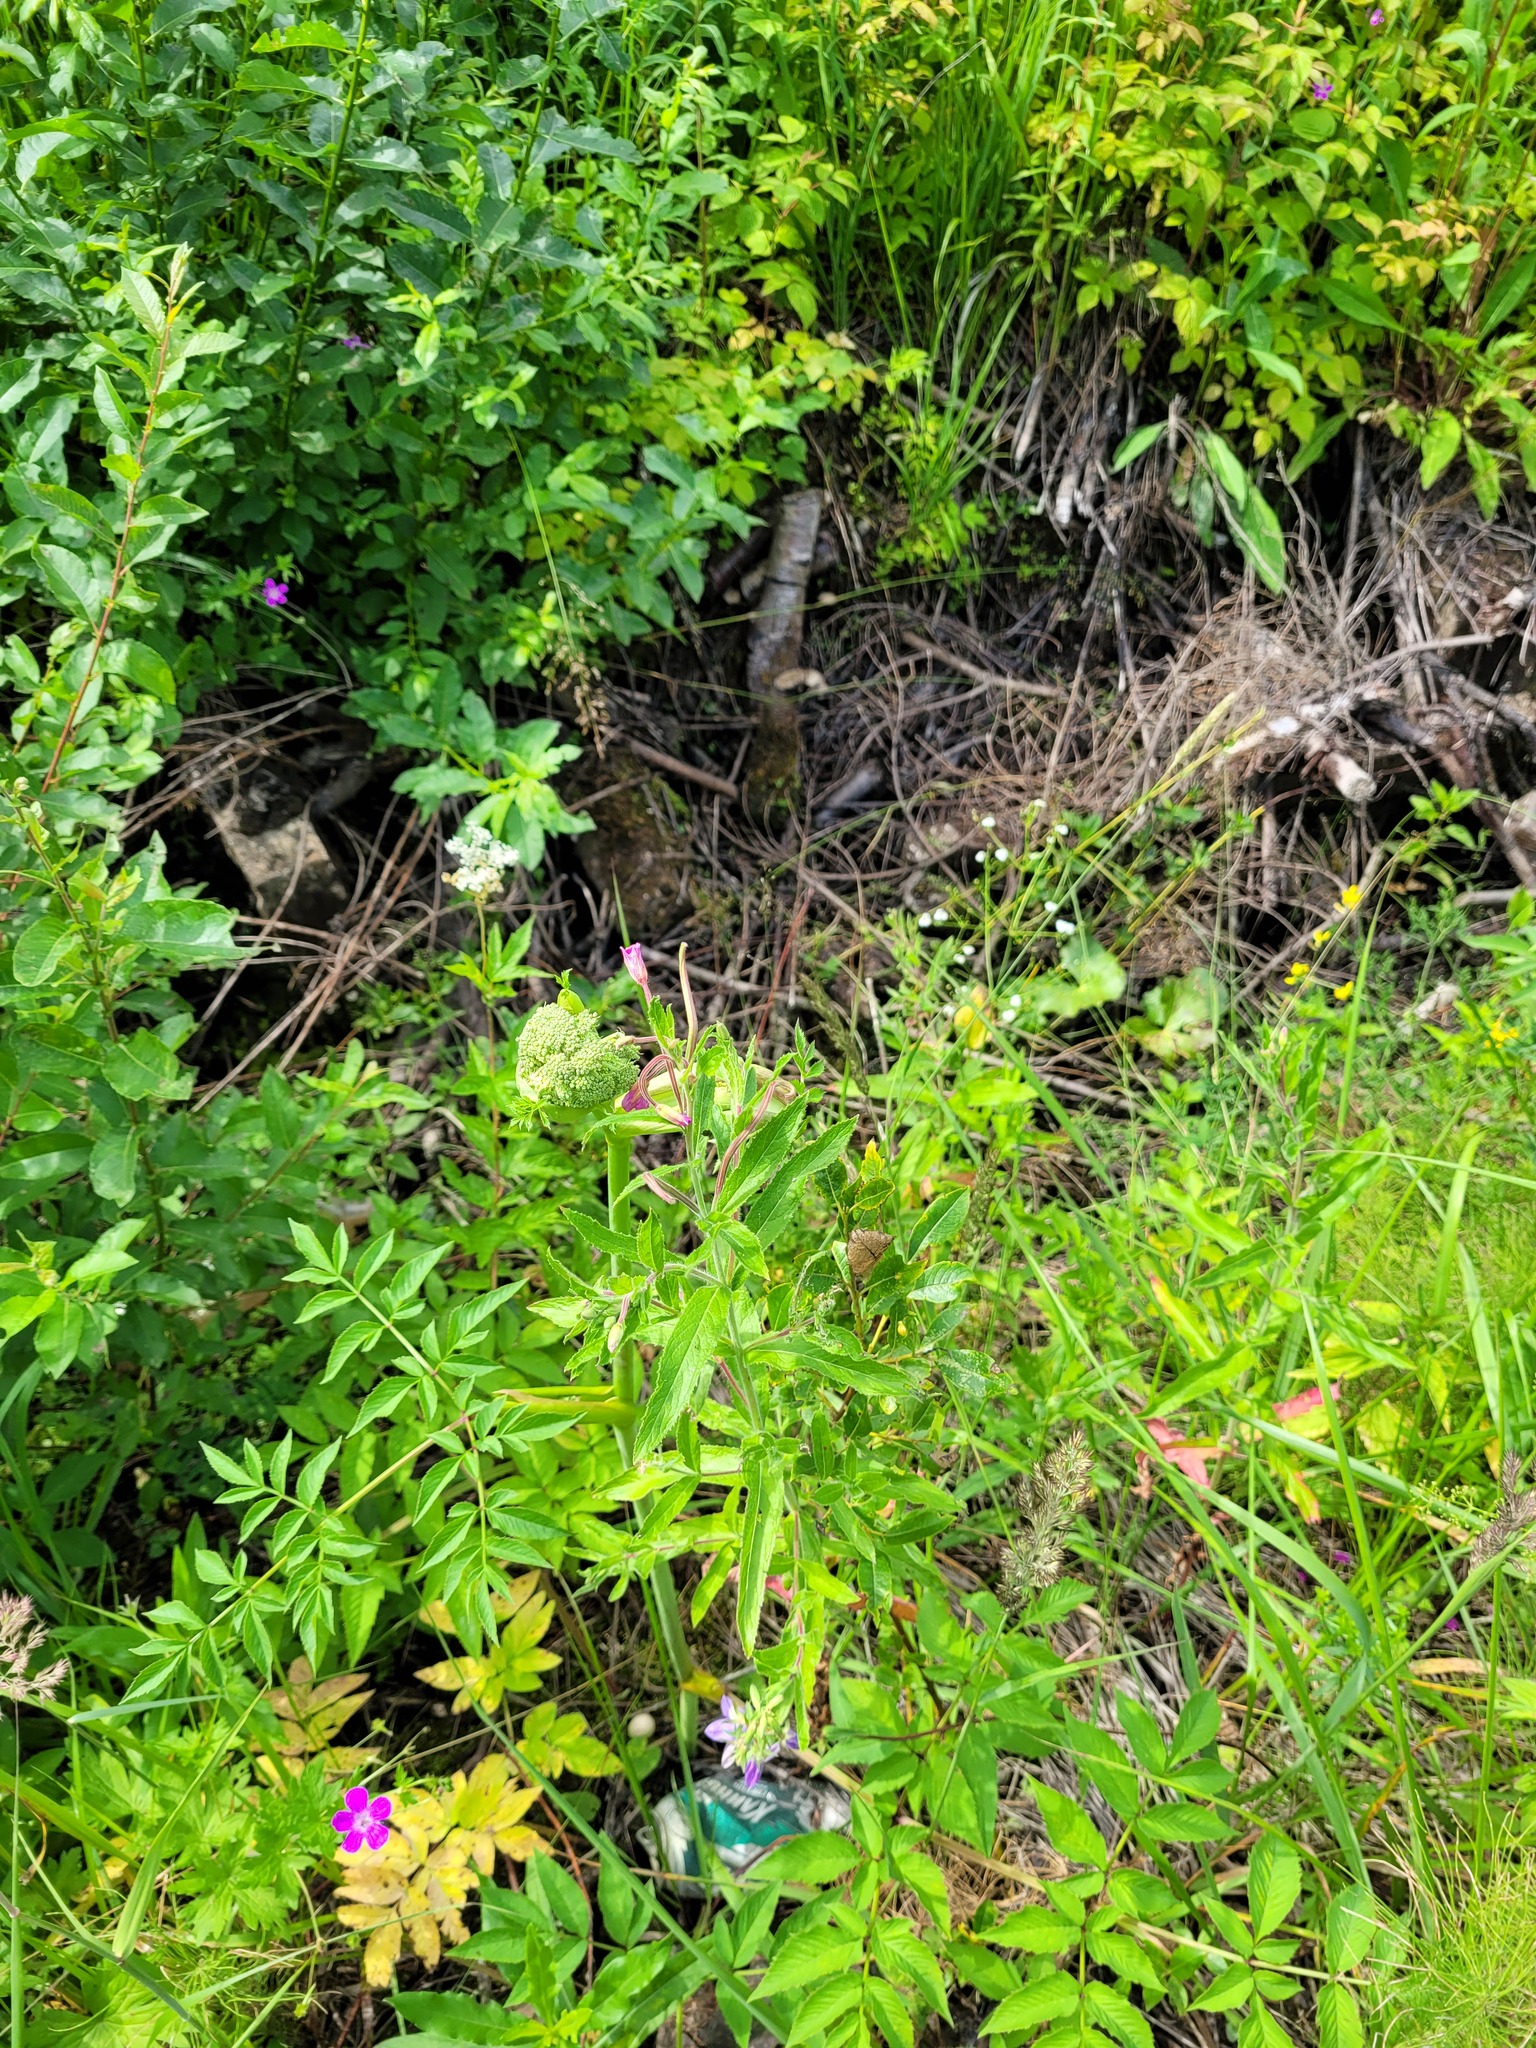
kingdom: Plantae
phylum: Tracheophyta
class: Magnoliopsida
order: Myrtales
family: Onagraceae
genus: Epilobium
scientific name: Epilobium hirsutum
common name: Great willowherb
